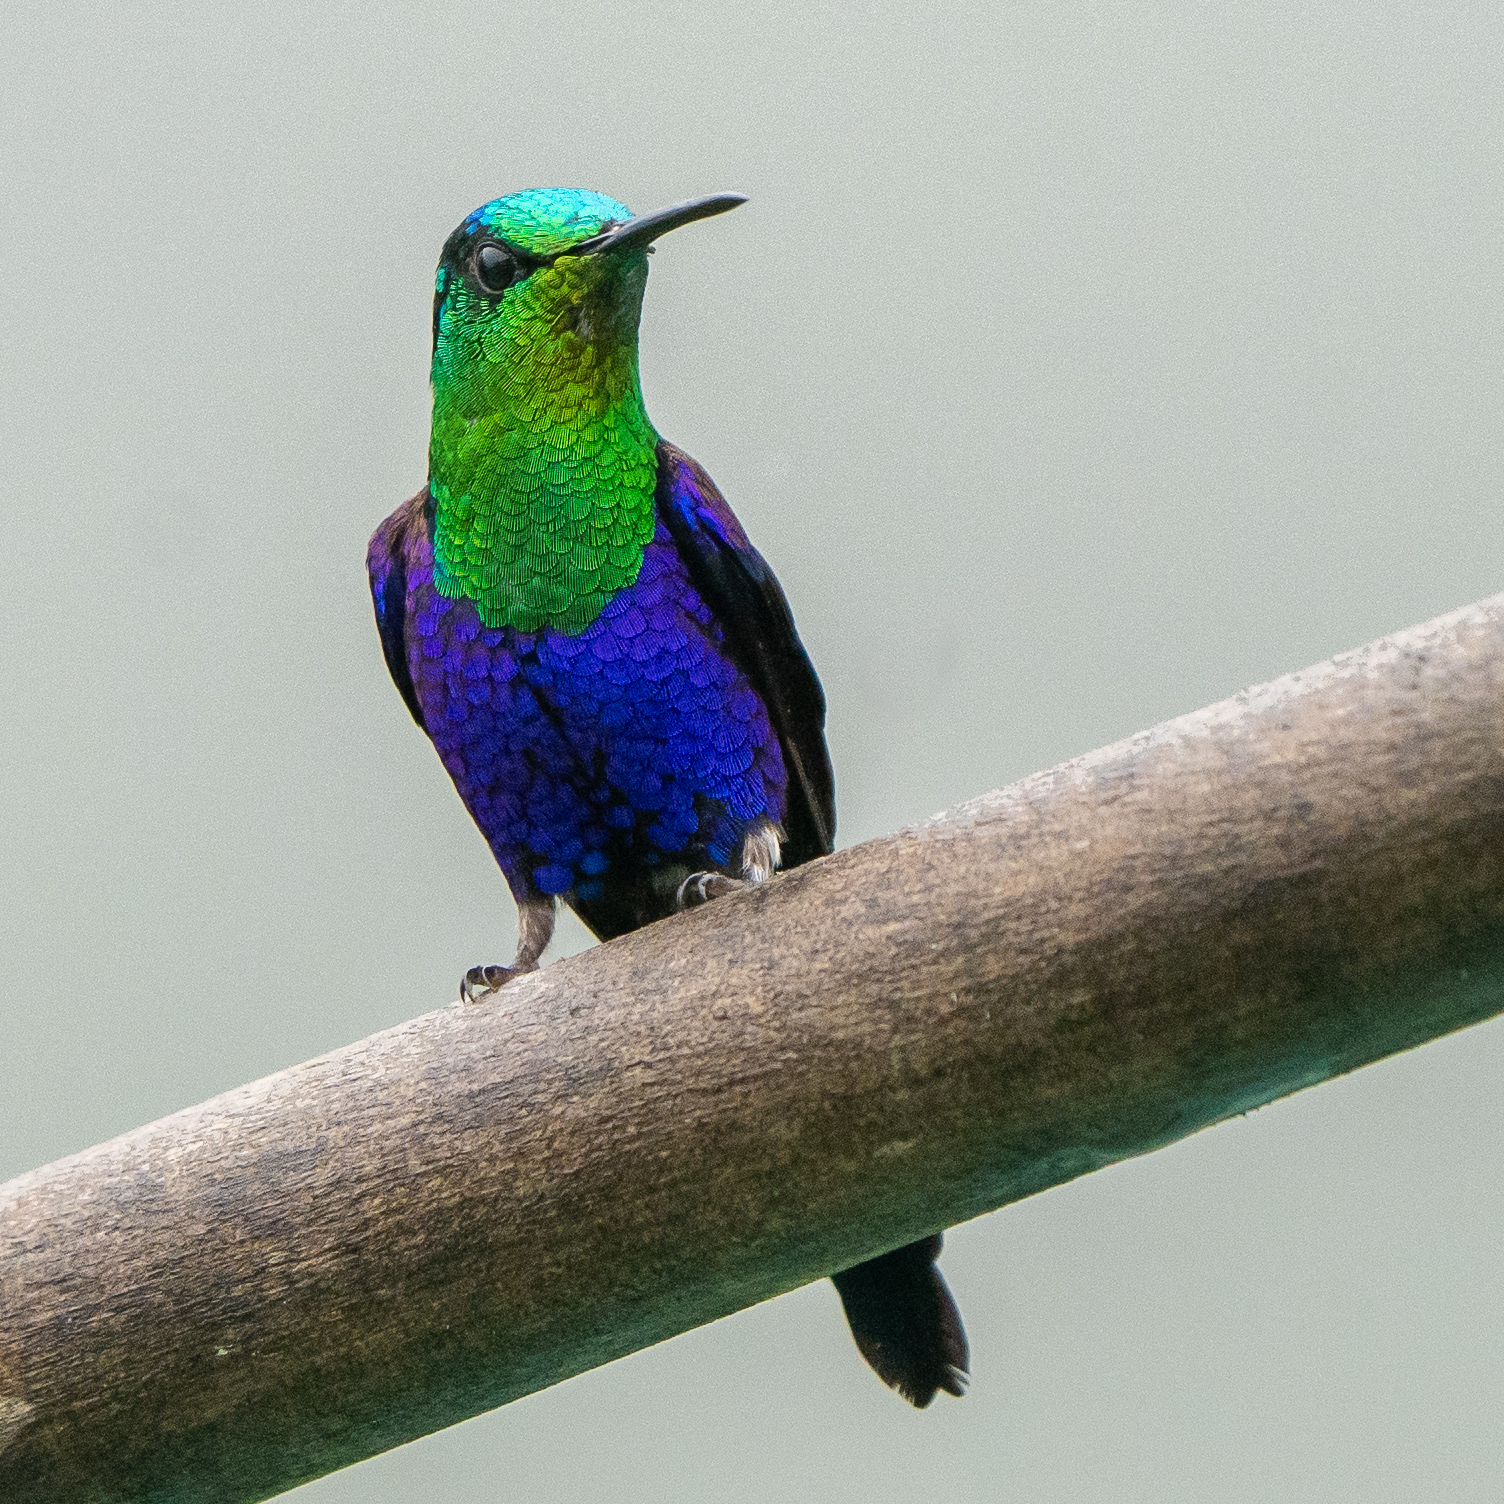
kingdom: Animalia
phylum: Chordata
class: Aves
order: Apodiformes
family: Trochilidae
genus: Thalurania
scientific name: Thalurania colombica
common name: Crowned woodnymph
